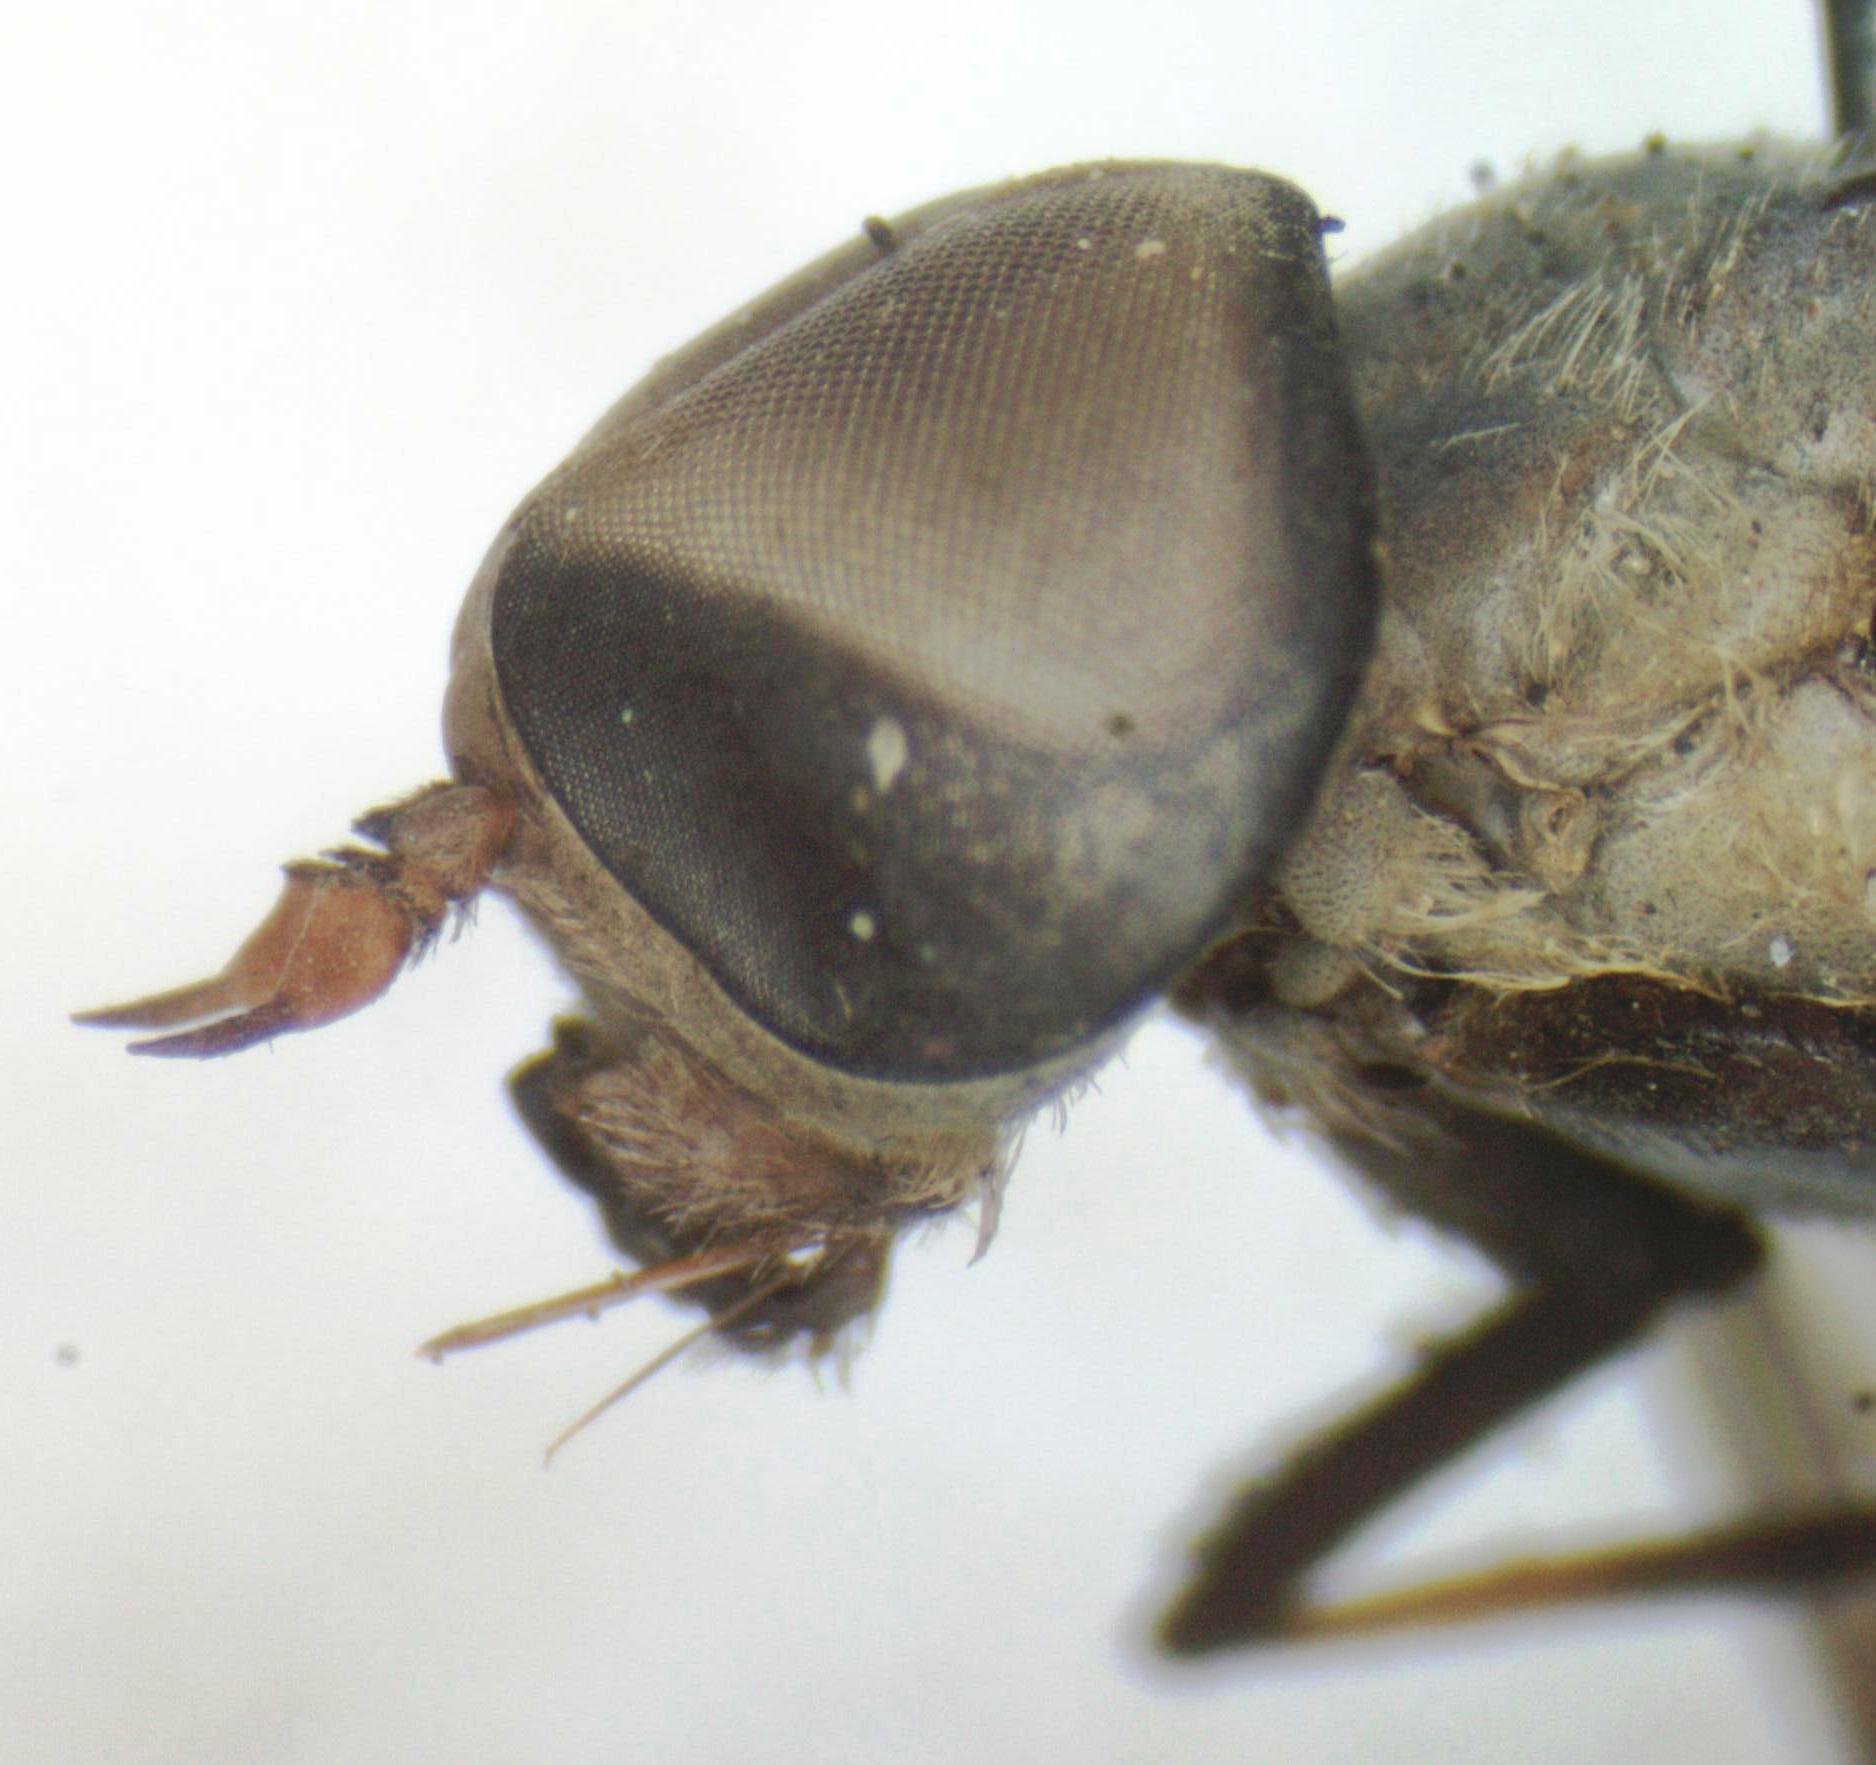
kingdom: Animalia
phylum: Arthropoda
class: Insecta
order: Diptera
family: Tabanidae
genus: Leucotabanus
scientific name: Leucotabanus exaestuans
